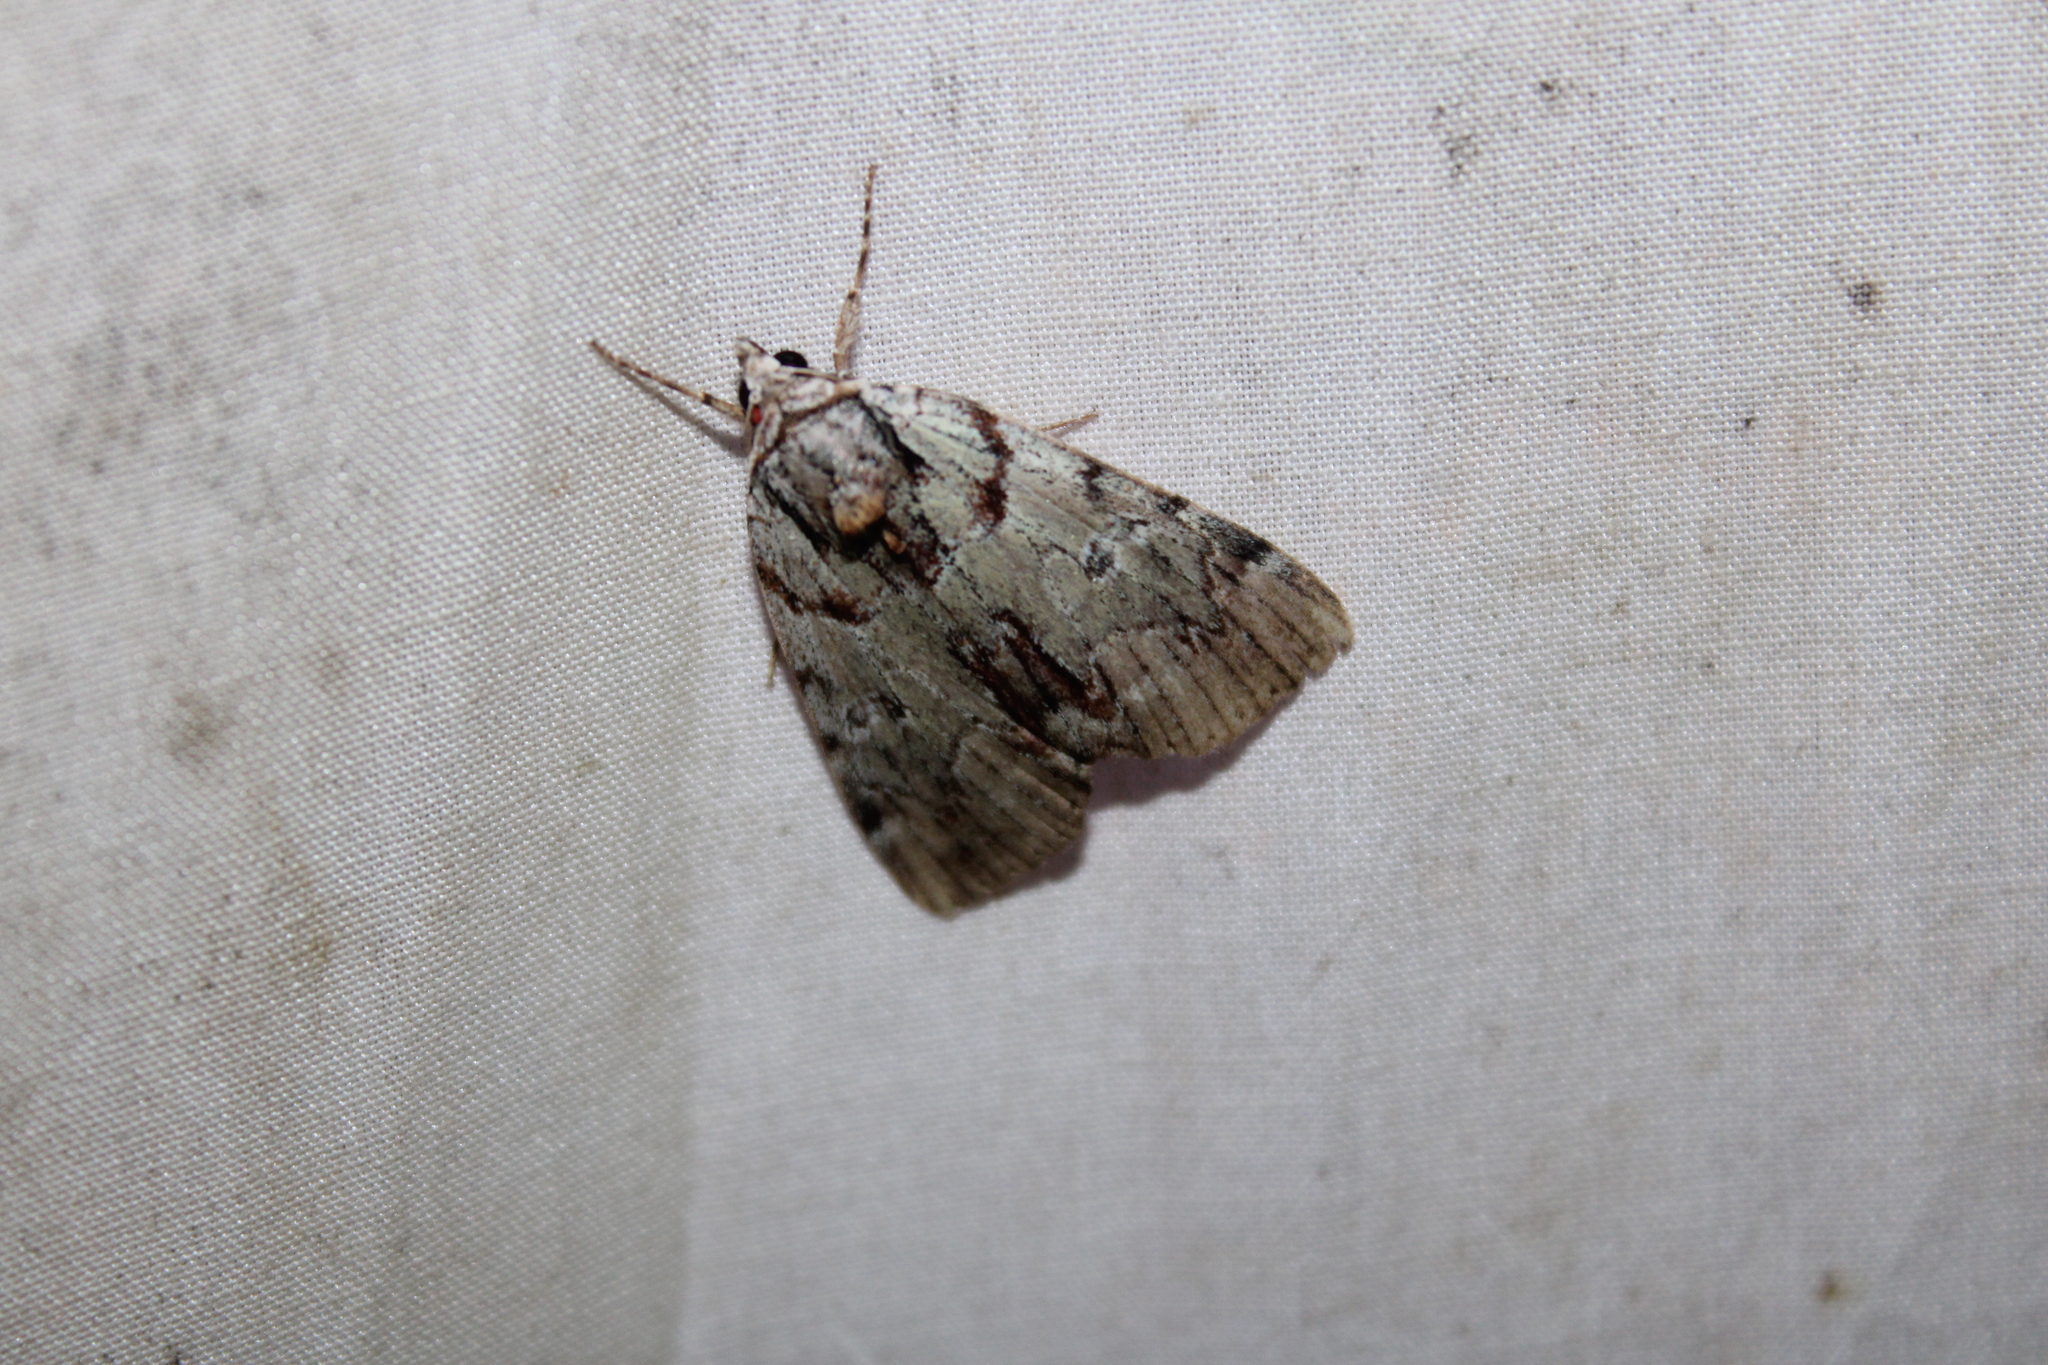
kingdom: Animalia
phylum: Arthropoda
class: Insecta
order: Lepidoptera
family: Erebidae
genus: Catocala
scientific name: Catocala praeclara
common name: Praeclara underwing
